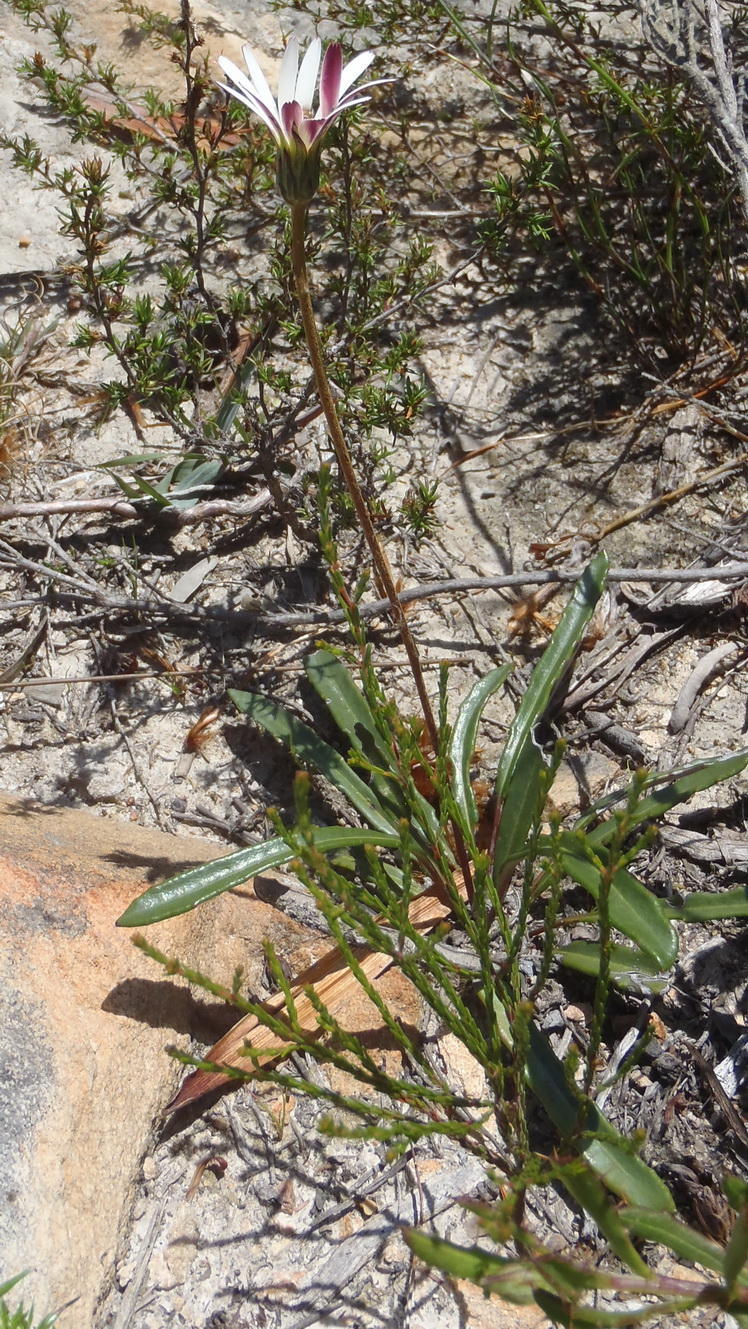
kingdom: Plantae
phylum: Tracheophyta
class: Magnoliopsida
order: Asterales
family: Asteraceae
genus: Gerbera
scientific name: Gerbera serrata
